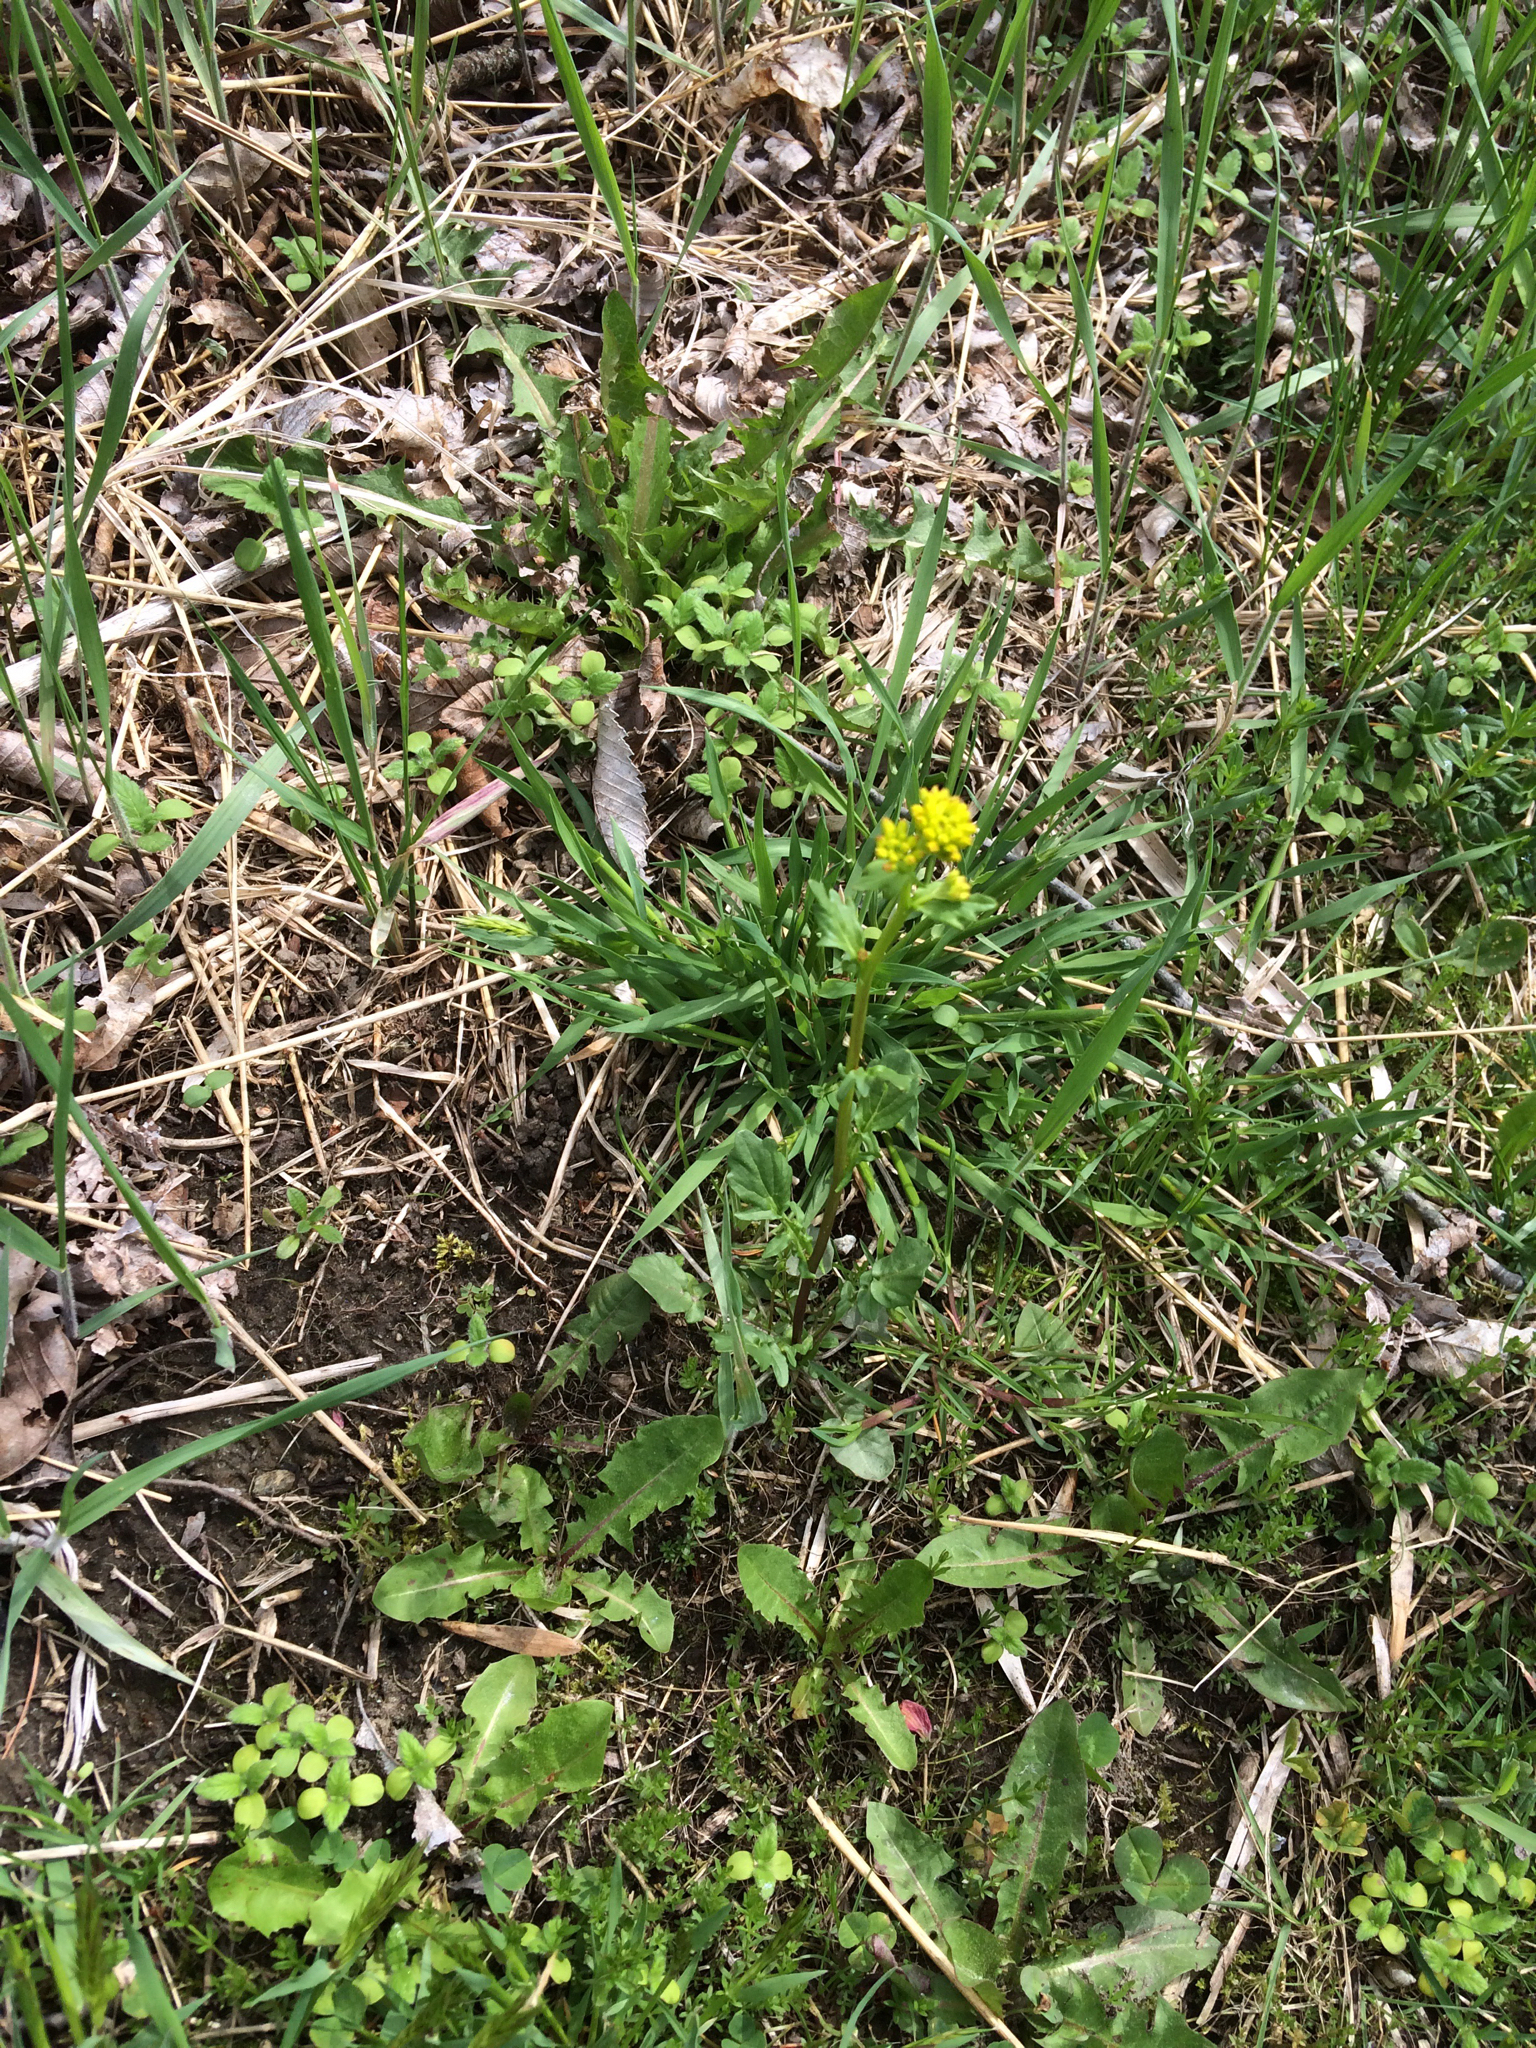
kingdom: Plantae
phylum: Tracheophyta
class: Magnoliopsida
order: Brassicales
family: Brassicaceae
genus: Barbarea
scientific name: Barbarea vulgaris
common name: Cressy-greens
